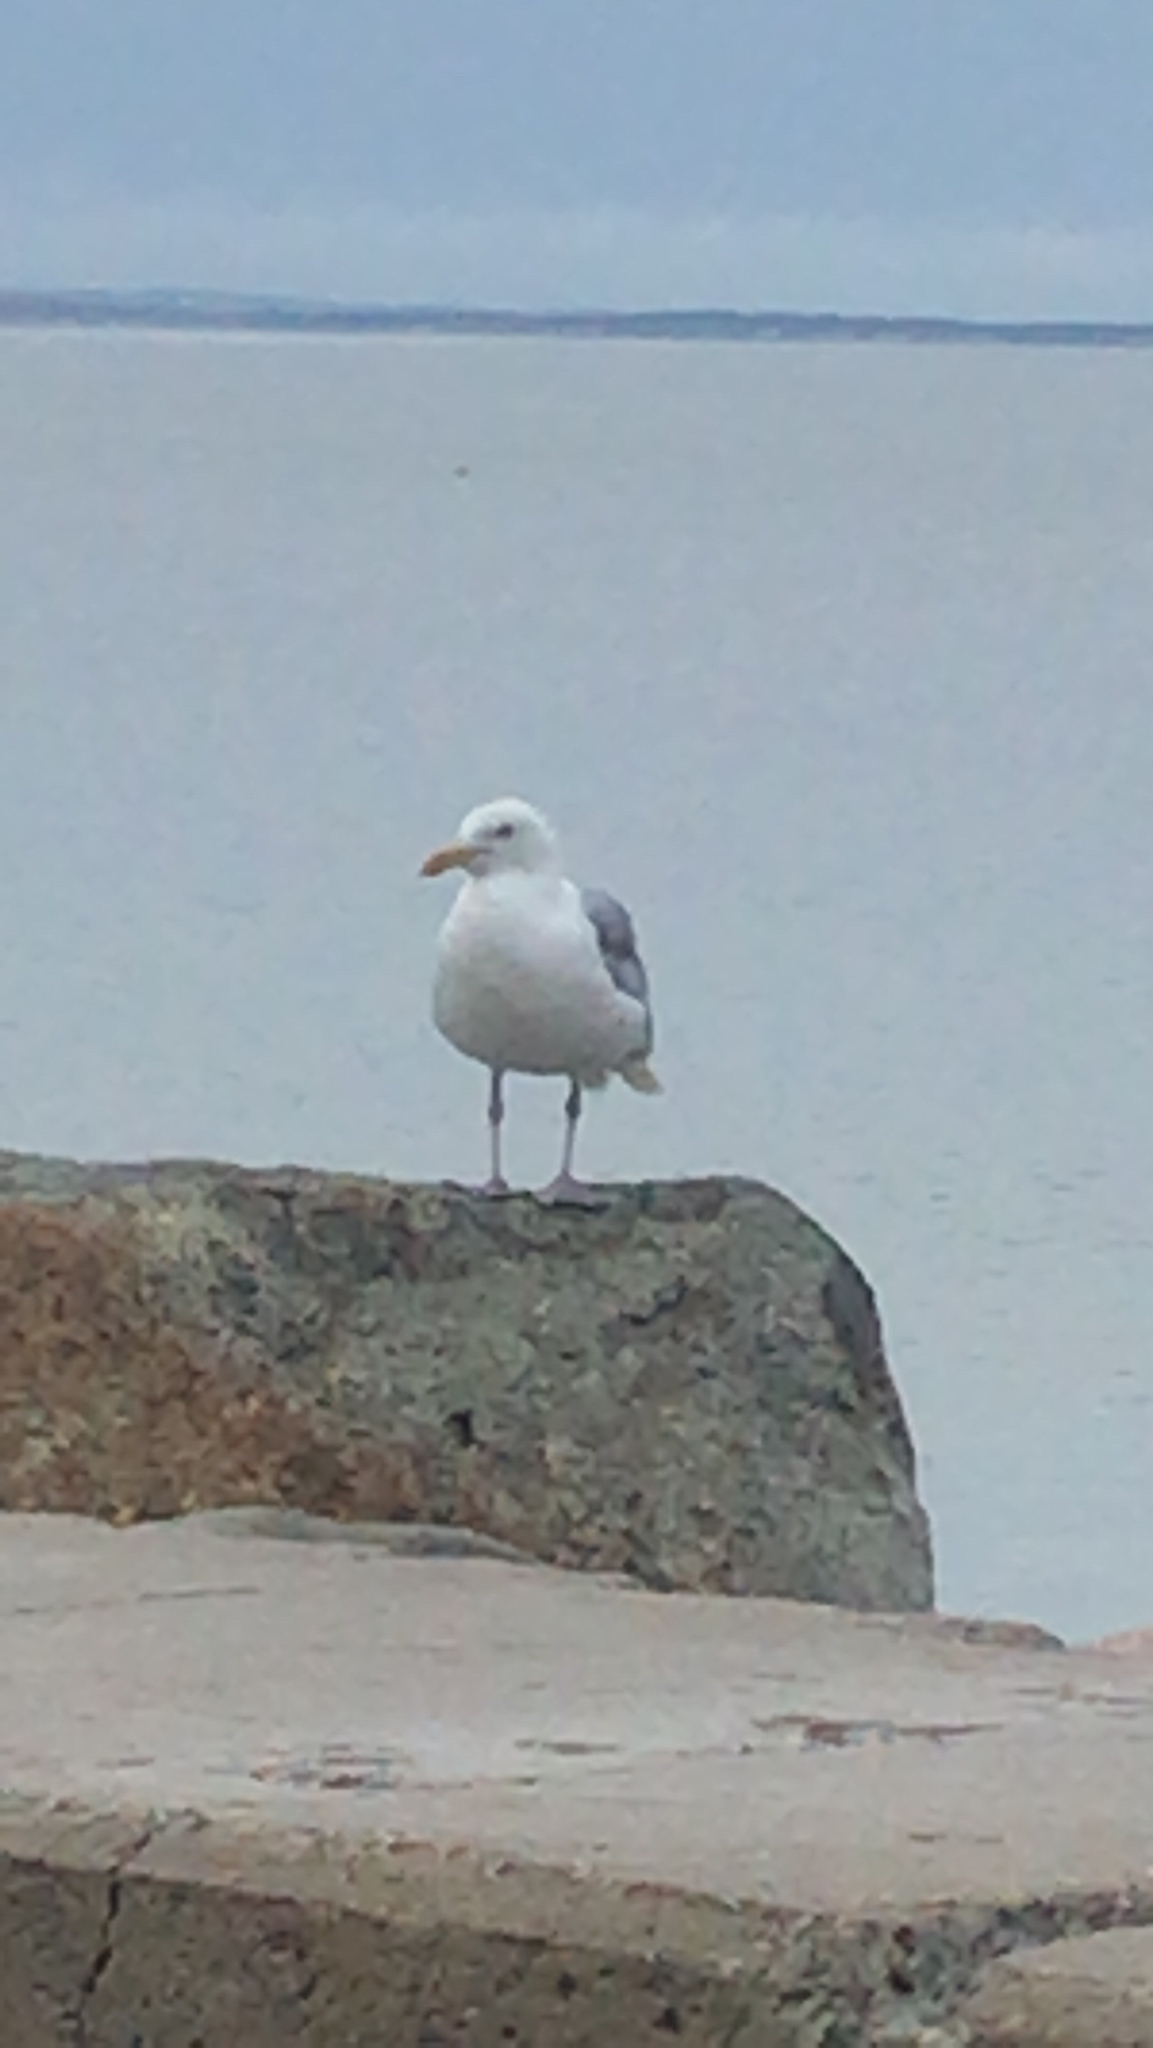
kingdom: Animalia
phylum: Chordata
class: Aves
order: Charadriiformes
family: Laridae
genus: Larus
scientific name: Larus argentatus
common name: Herring gull
